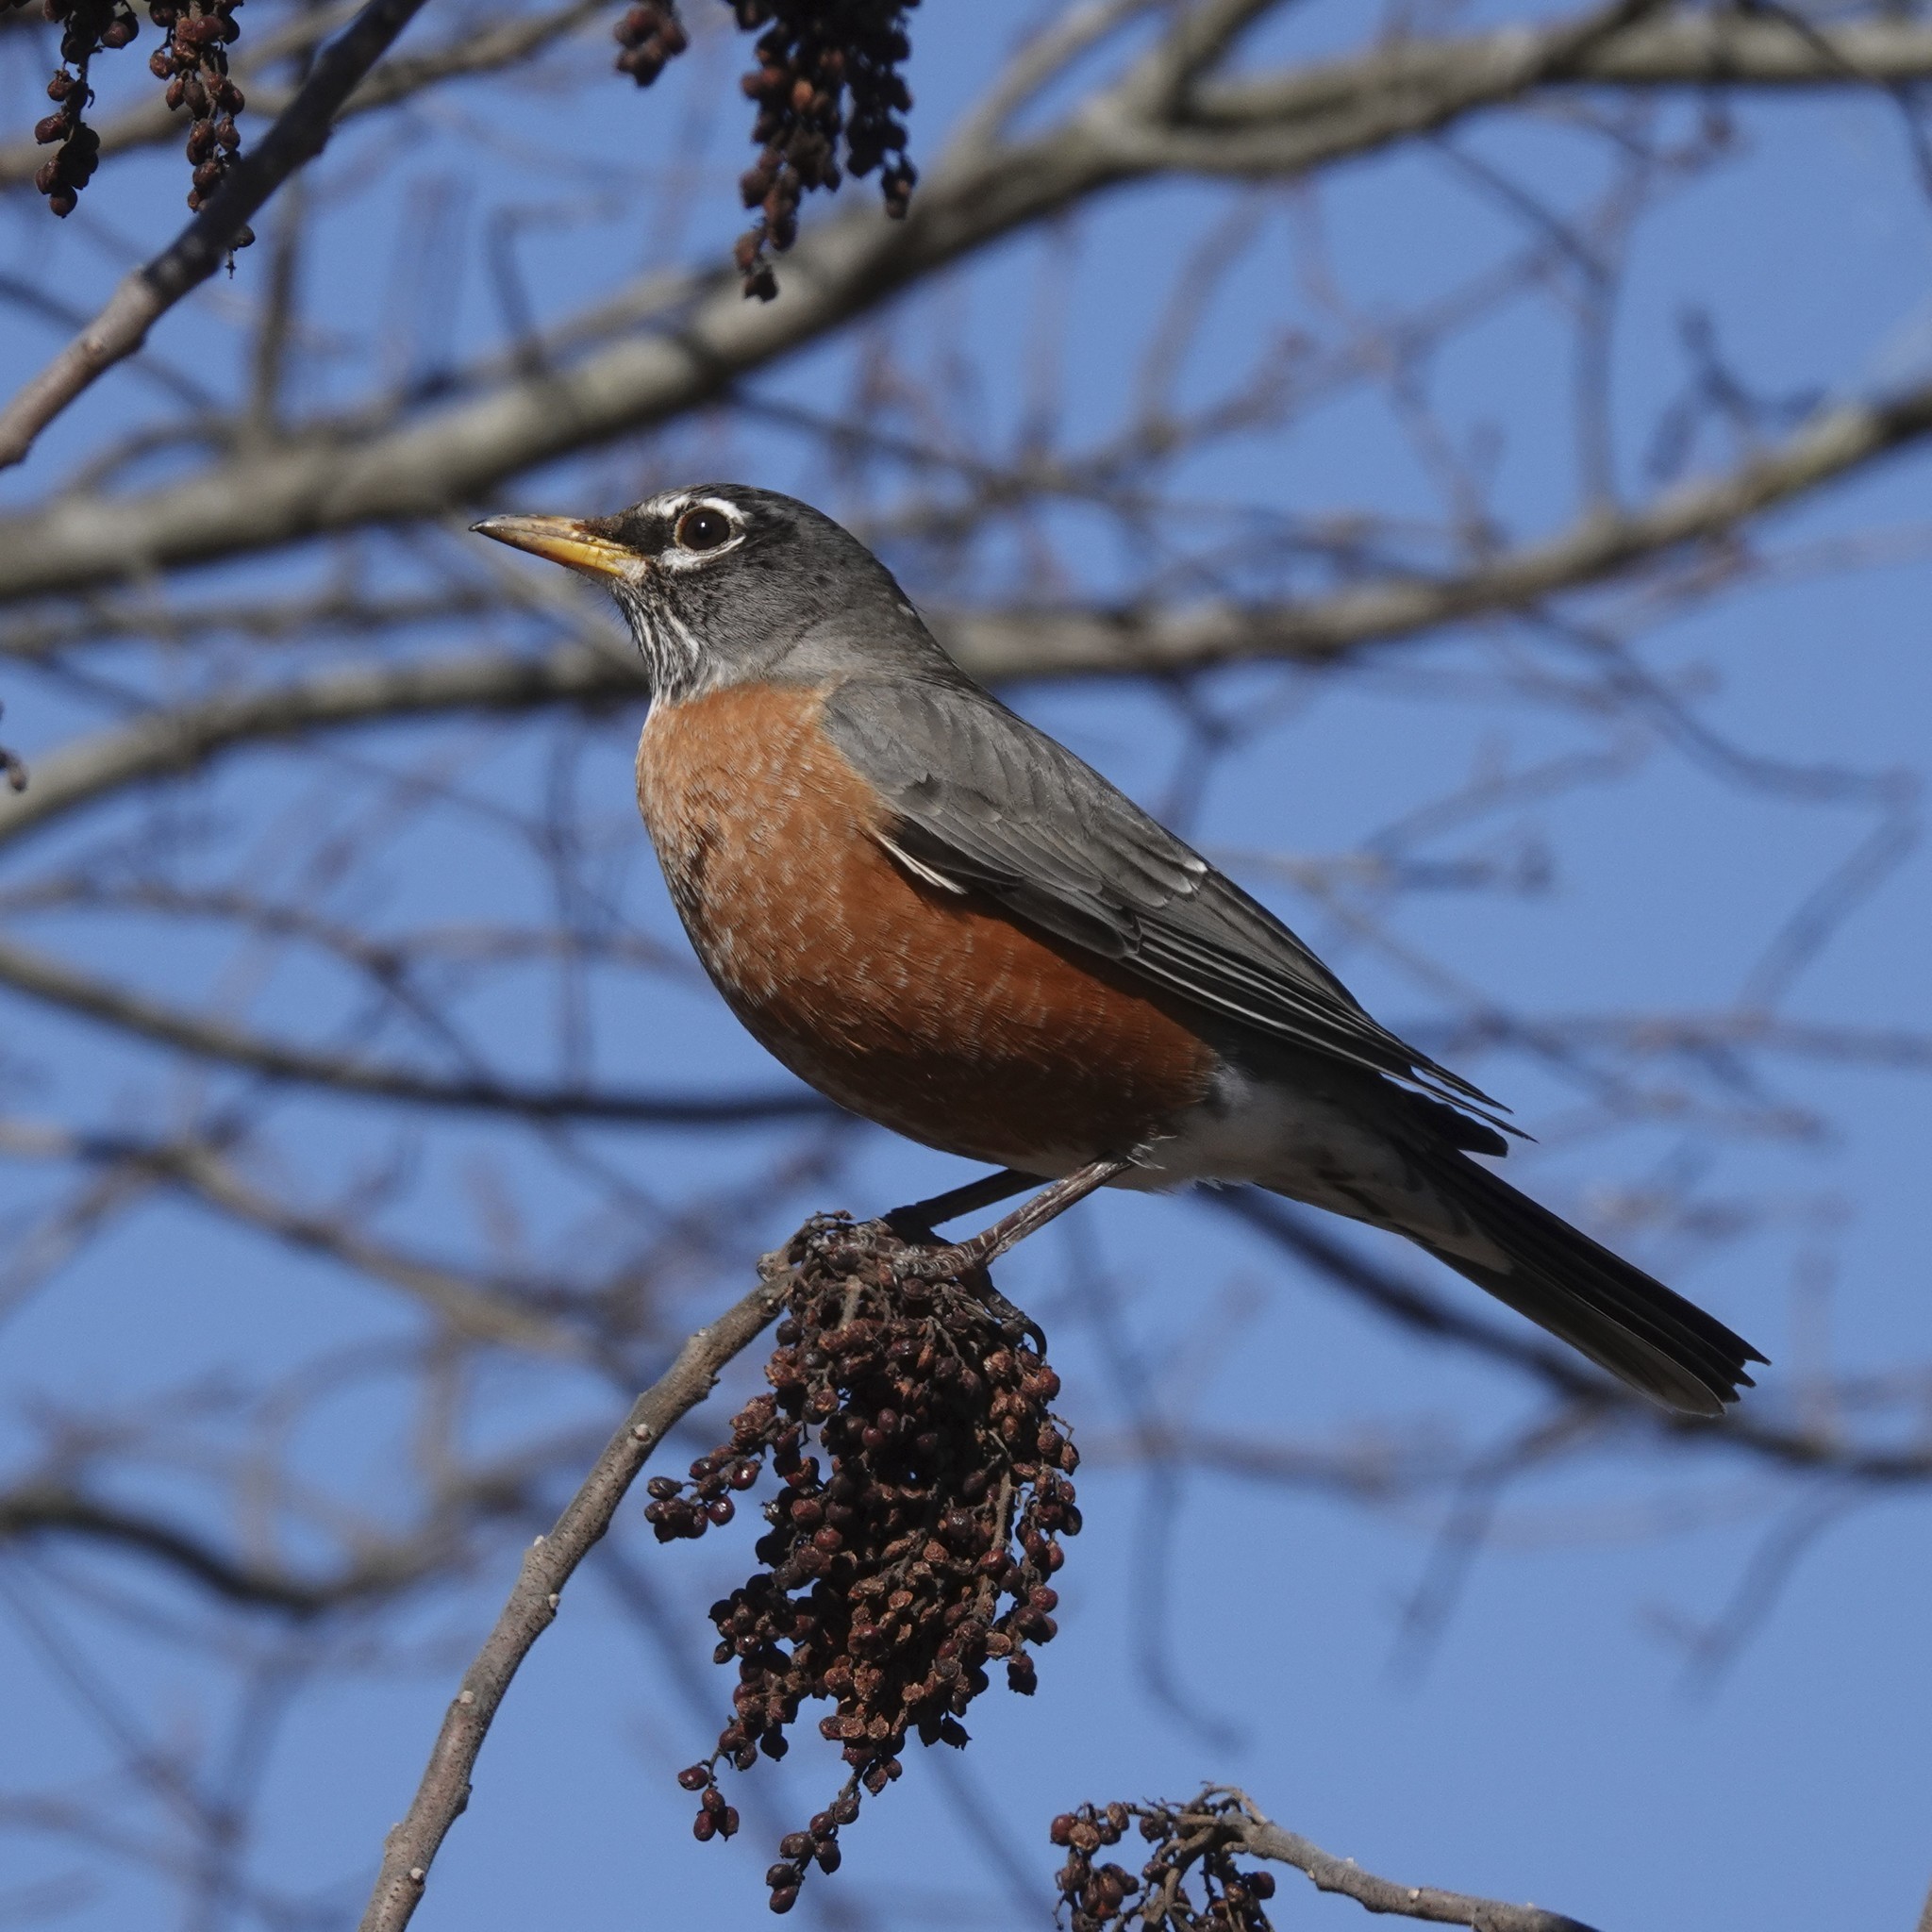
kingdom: Animalia
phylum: Chordata
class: Aves
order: Passeriformes
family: Turdidae
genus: Turdus
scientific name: Turdus migratorius
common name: American robin
